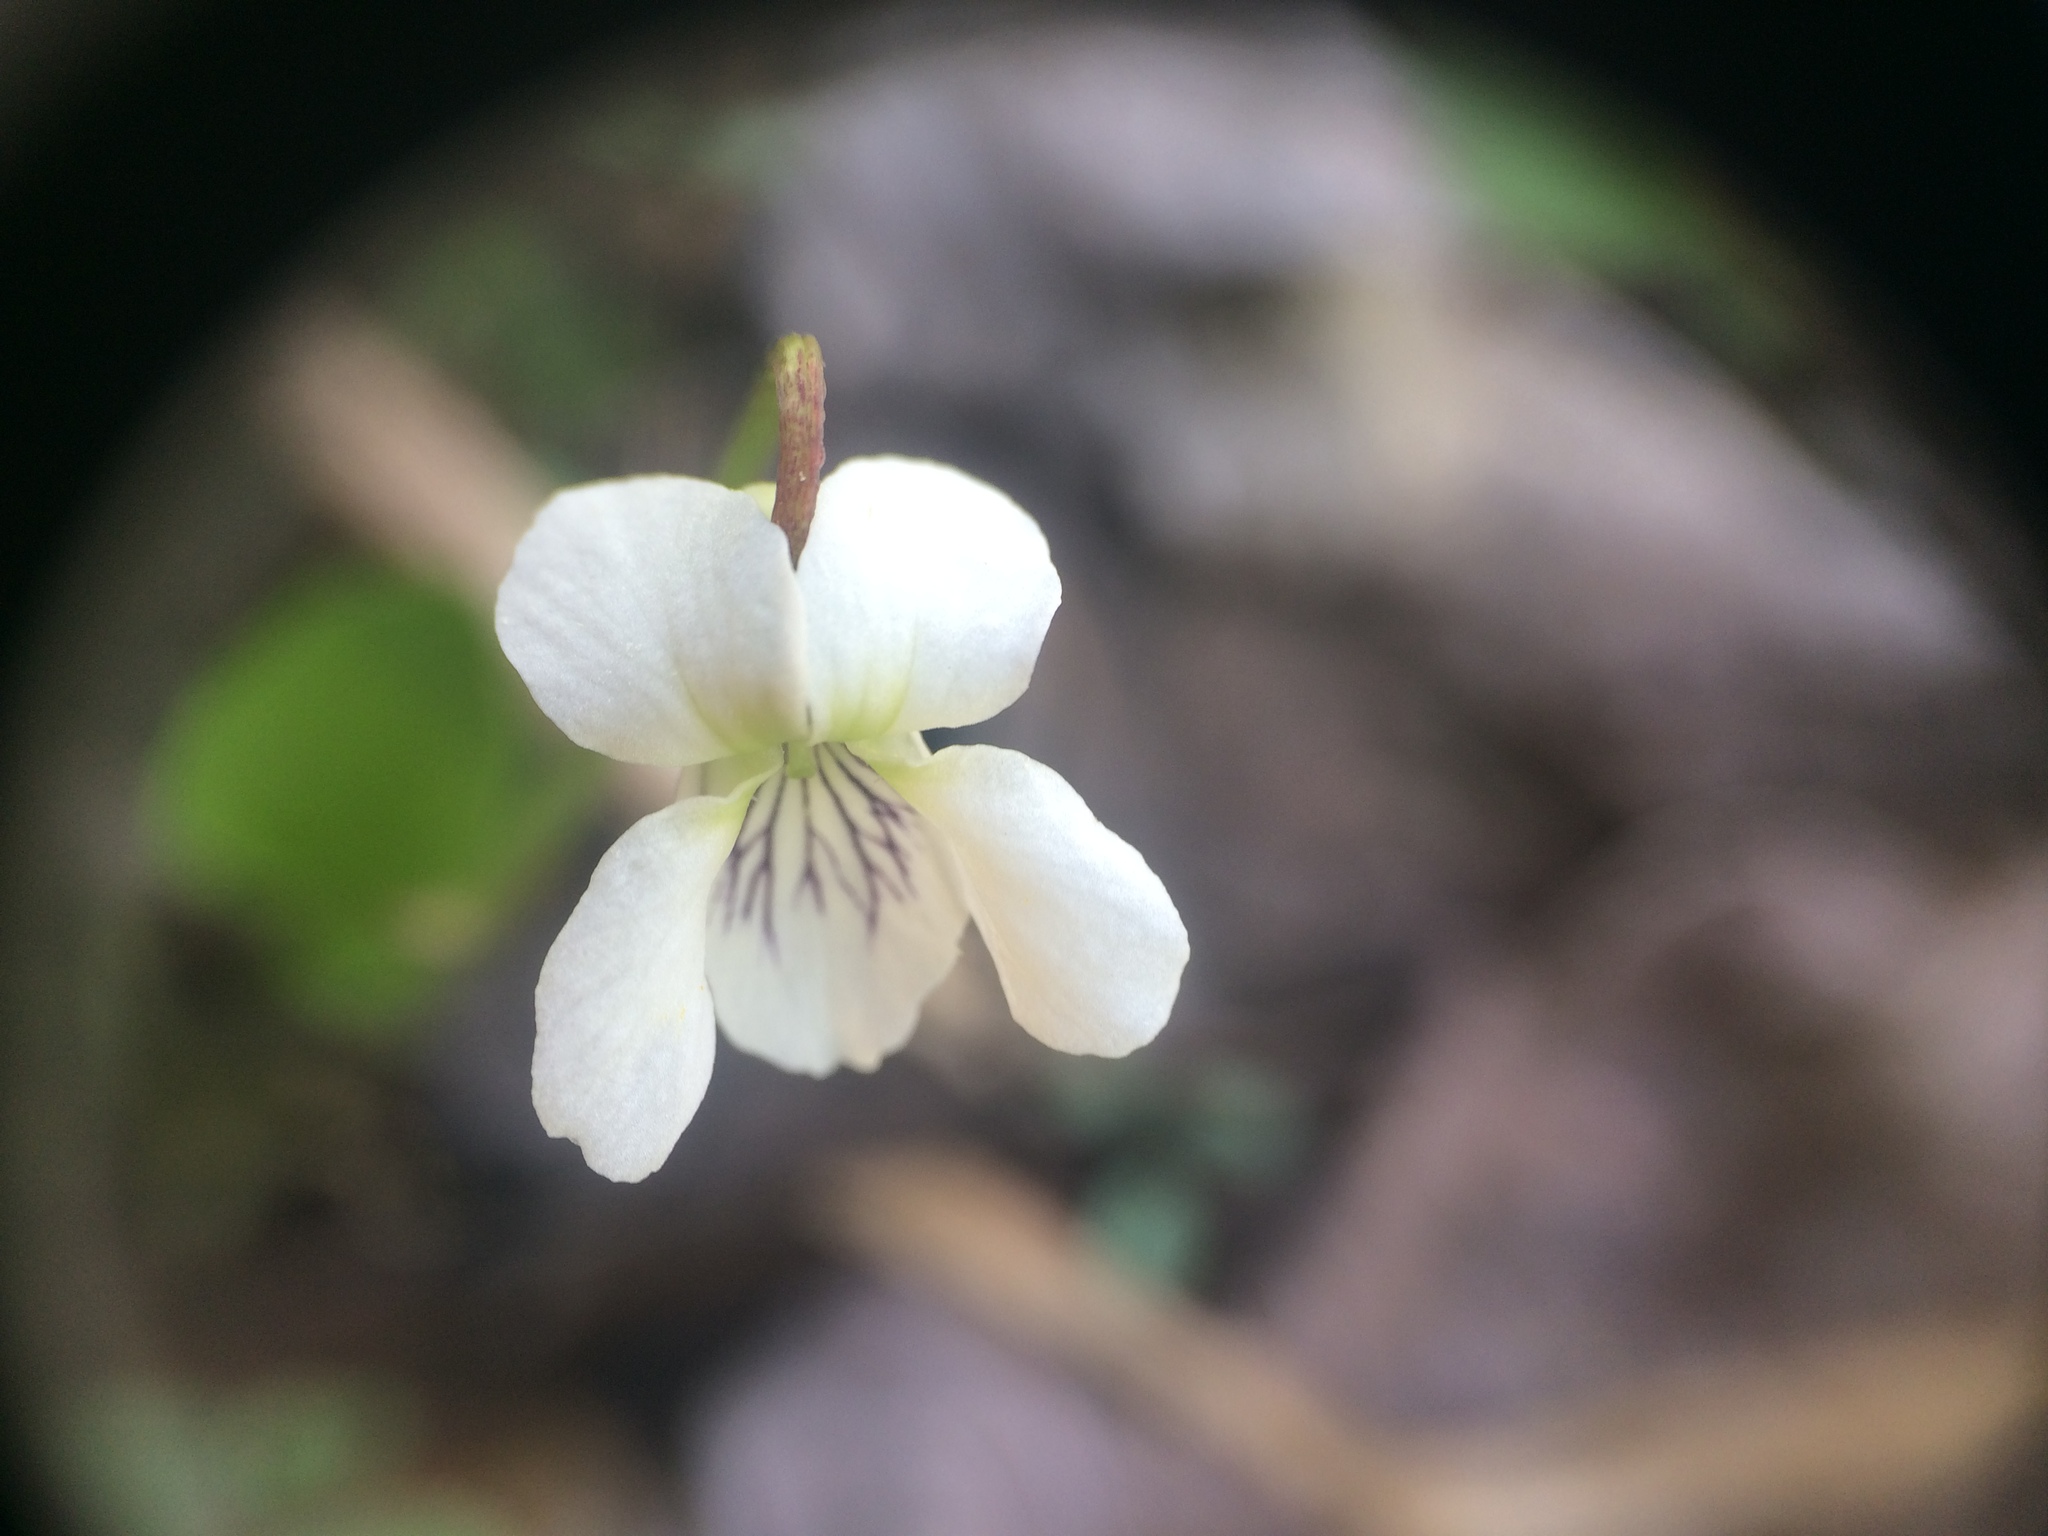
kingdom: Plantae
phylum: Tracheophyta
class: Magnoliopsida
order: Malpighiales
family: Violaceae
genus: Viola
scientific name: Viola minuscula
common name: Northern white violet
